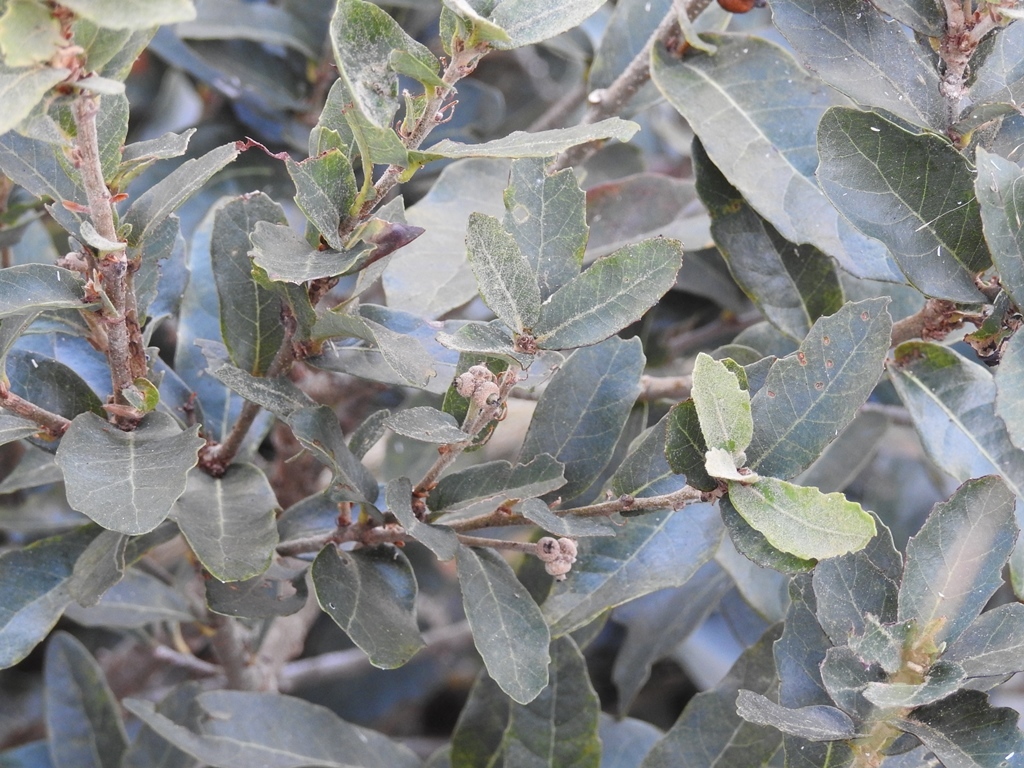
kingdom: Plantae
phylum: Tracheophyta
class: Magnoliopsida
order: Fagales
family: Fagaceae
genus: Quercus
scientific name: Quercus sebifera
